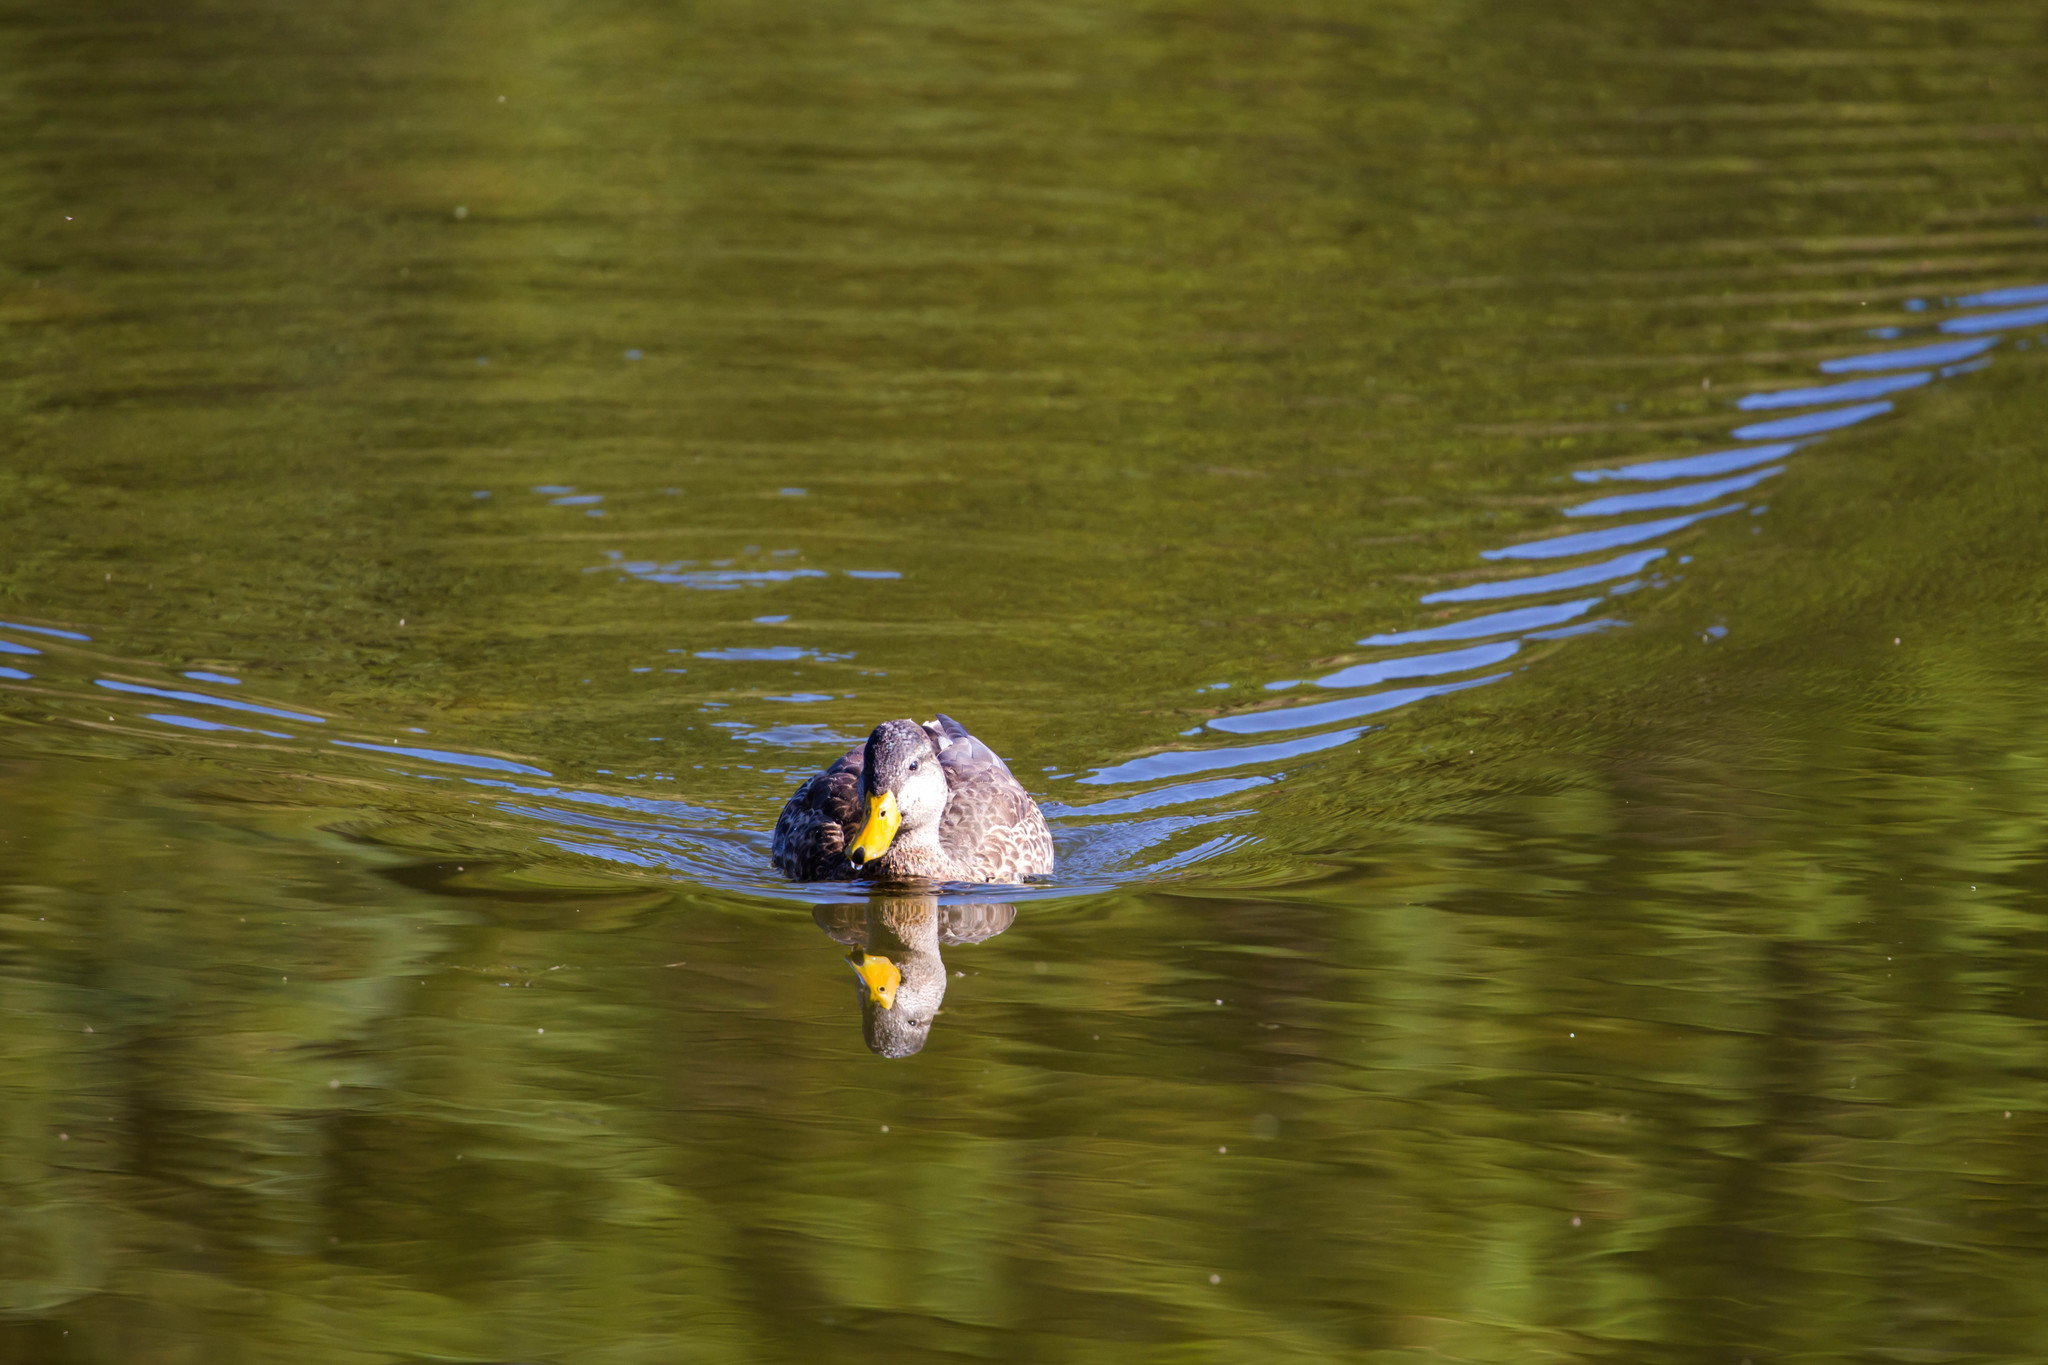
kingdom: Animalia
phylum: Chordata
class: Aves
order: Anseriformes
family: Anatidae
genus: Anas
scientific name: Anas platyrhynchos
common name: Mallard
